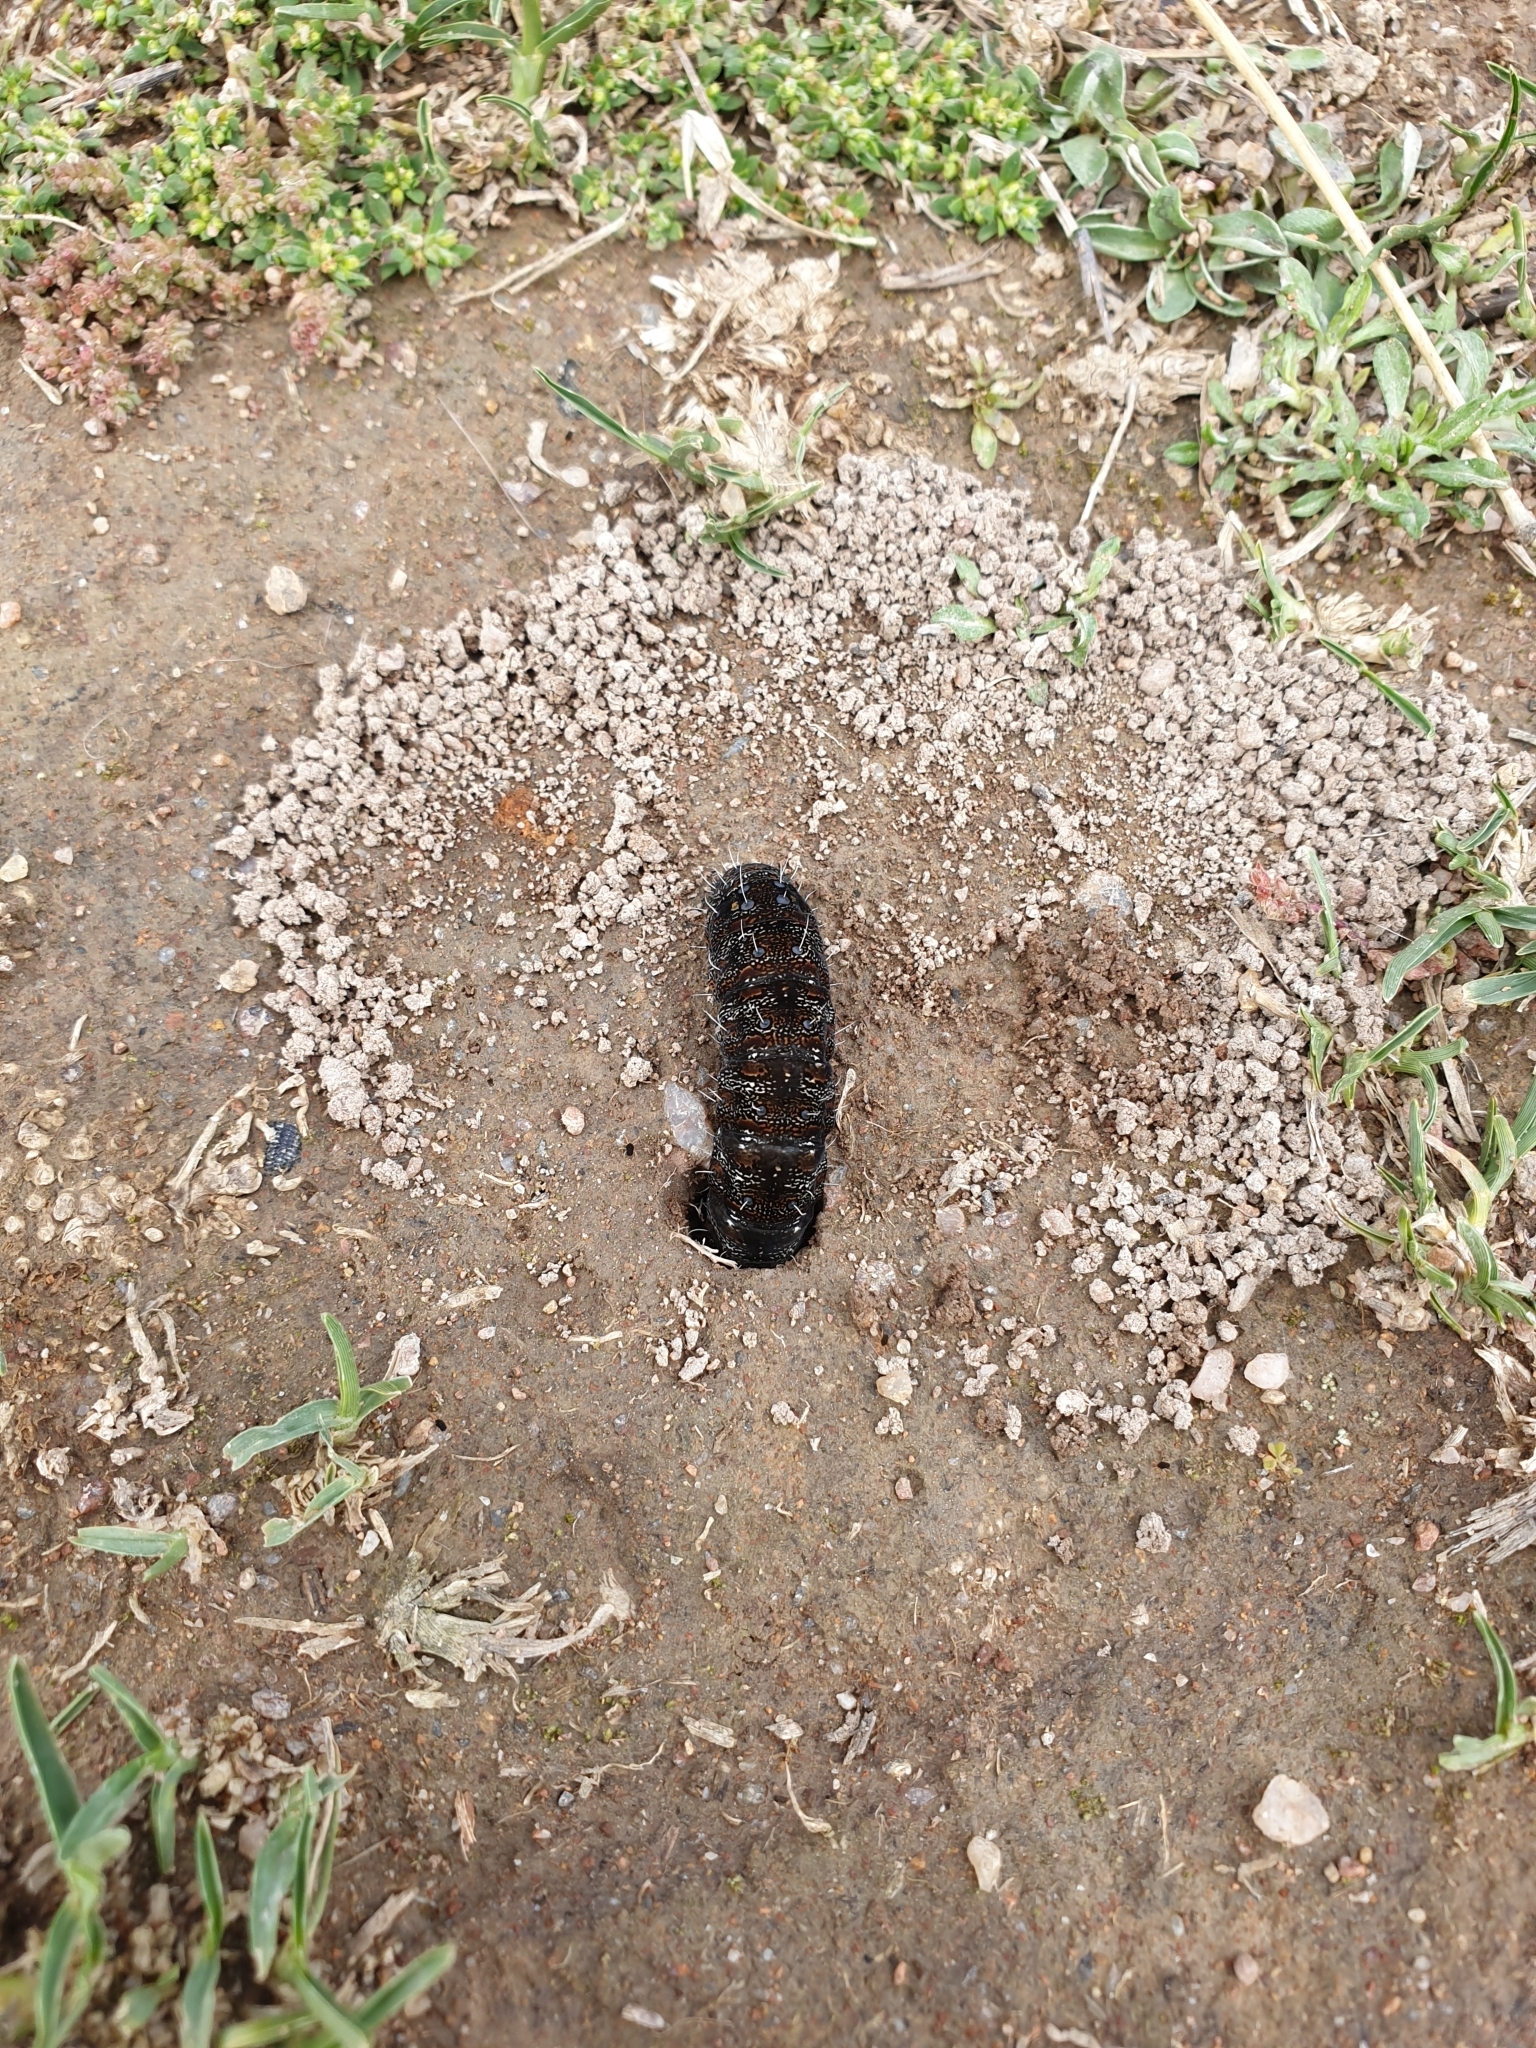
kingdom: Animalia
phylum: Arthropoda
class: Insecta
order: Lepidoptera
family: Noctuidae
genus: Apina
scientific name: Apina callisto
